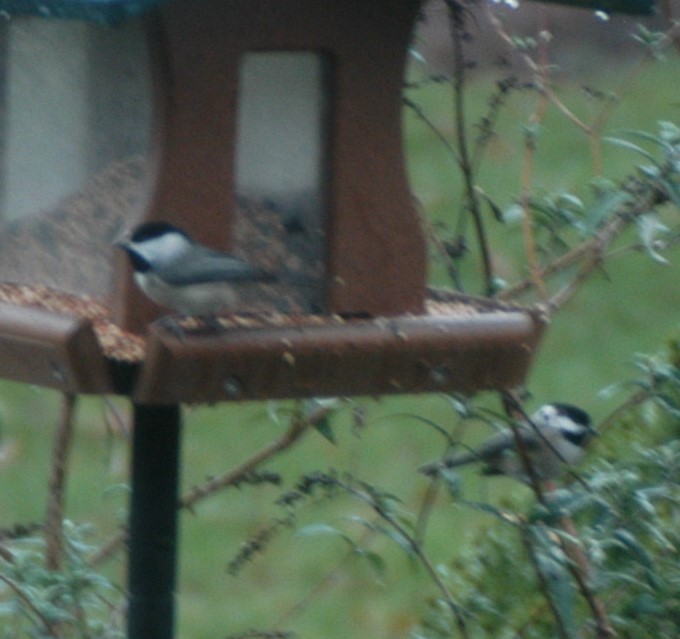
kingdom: Animalia
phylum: Chordata
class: Aves
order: Passeriformes
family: Paridae
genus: Poecile
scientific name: Poecile carolinensis
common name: Carolina chickadee
